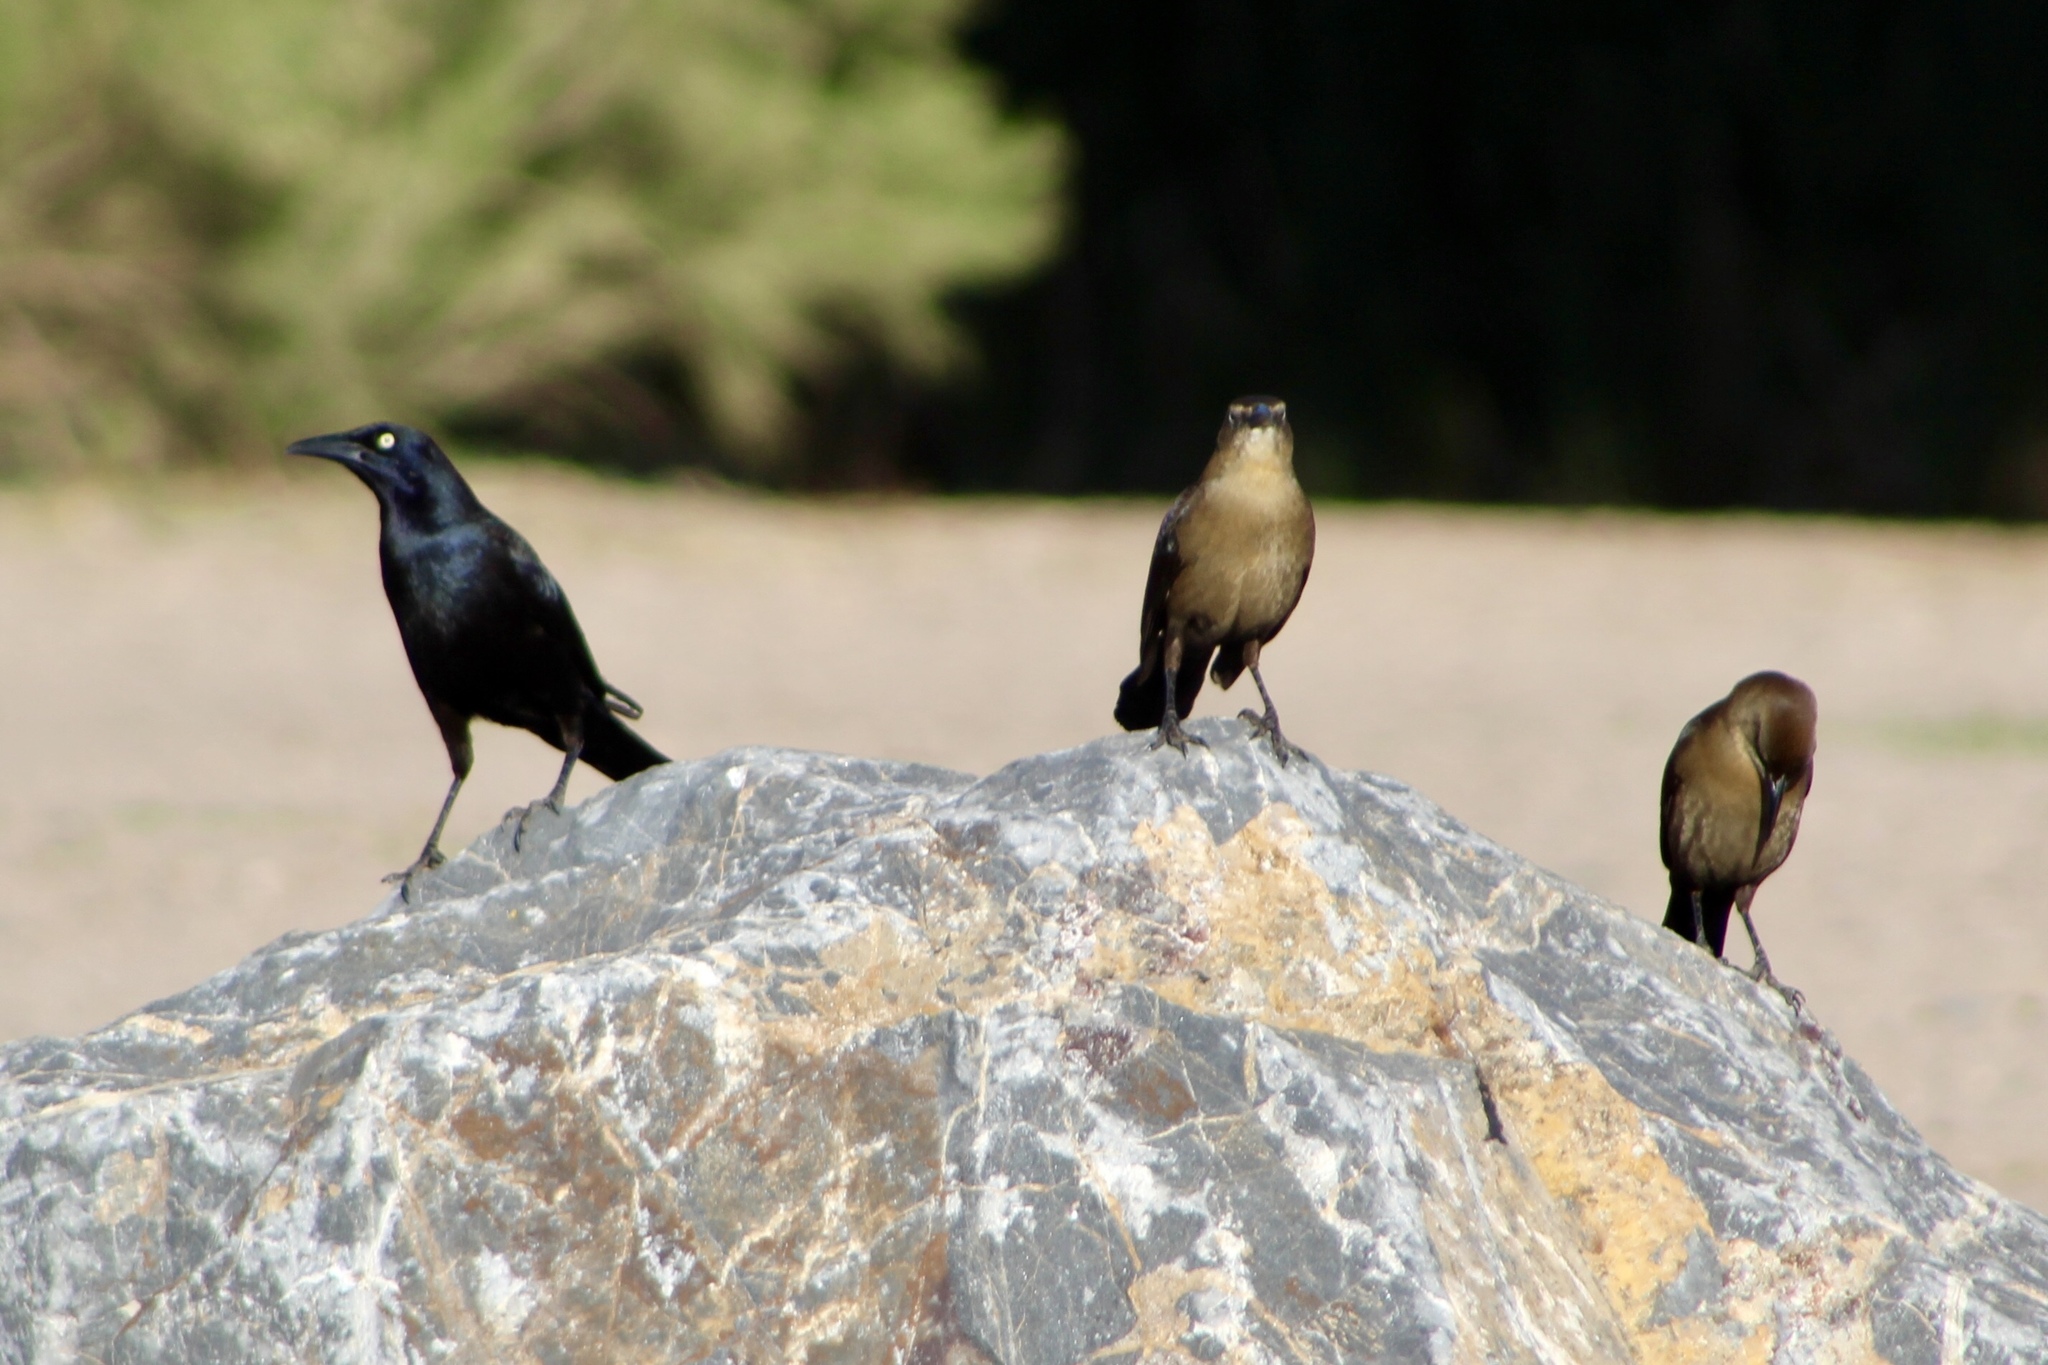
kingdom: Animalia
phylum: Chordata
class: Aves
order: Passeriformes
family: Icteridae
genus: Quiscalus
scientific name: Quiscalus mexicanus
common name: Great-tailed grackle
